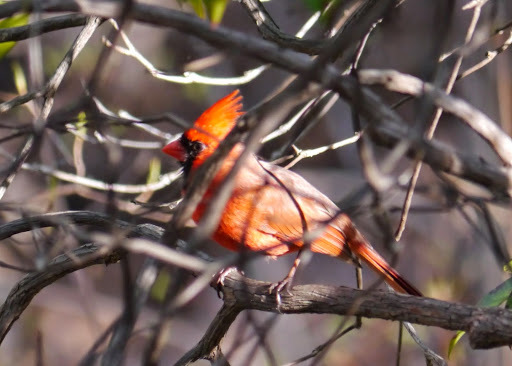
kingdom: Animalia
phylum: Chordata
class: Aves
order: Passeriformes
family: Cardinalidae
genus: Cardinalis
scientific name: Cardinalis cardinalis
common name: Northern cardinal
